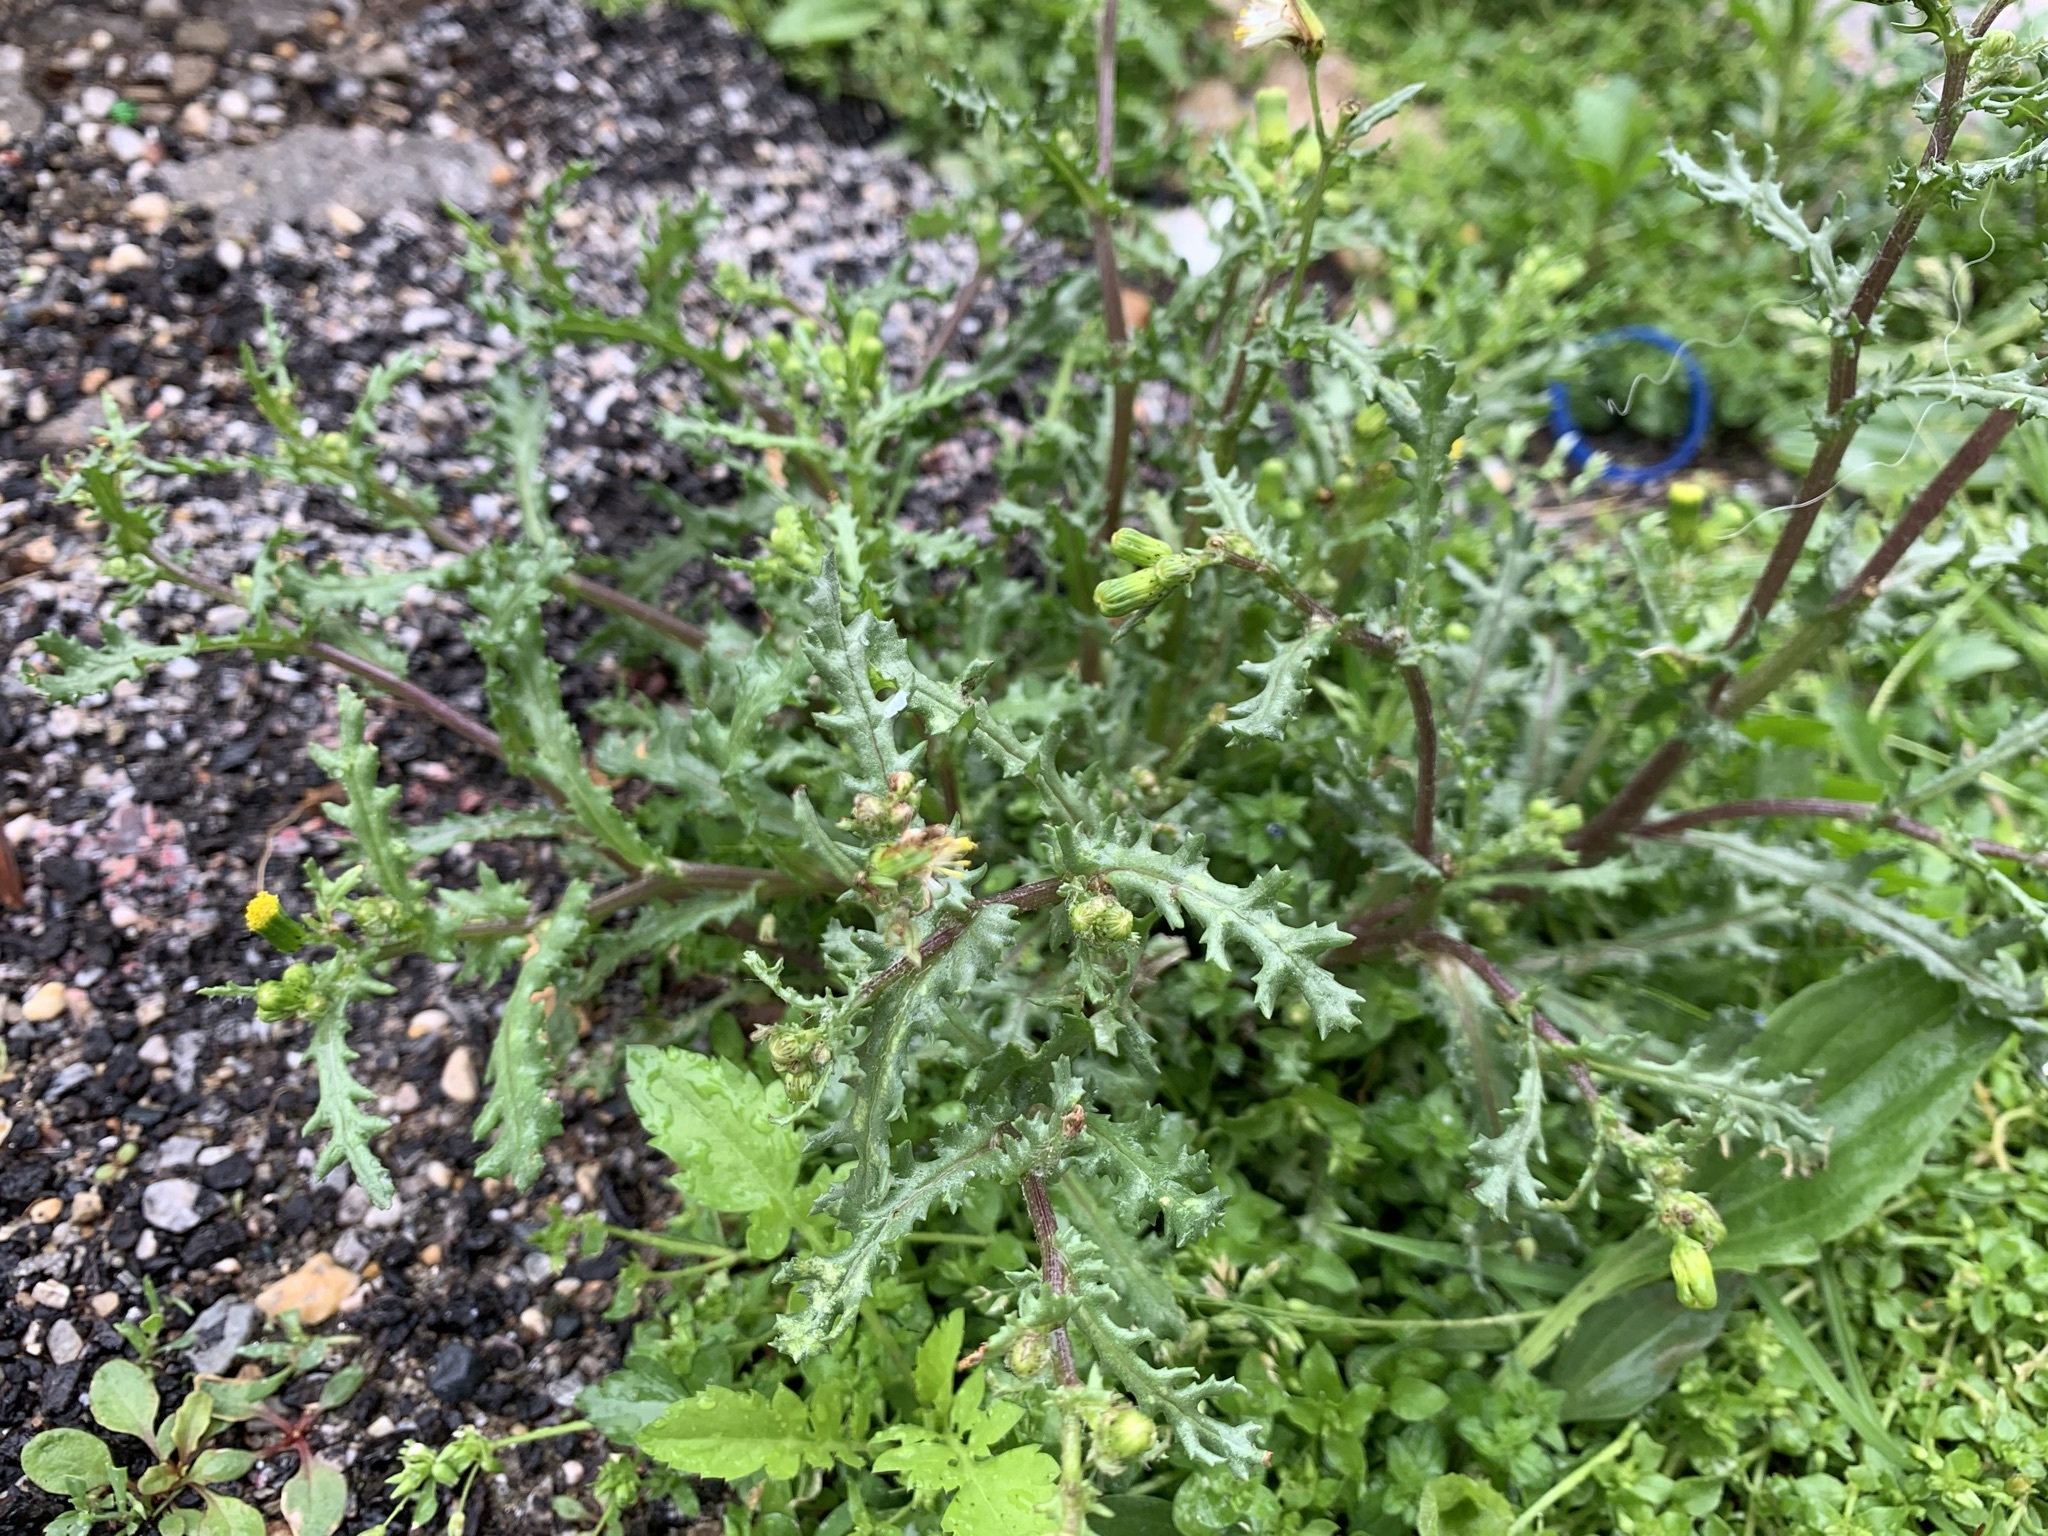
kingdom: Plantae
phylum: Tracheophyta
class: Magnoliopsida
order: Asterales
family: Asteraceae
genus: Senecio
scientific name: Senecio vulgaris
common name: Old-man-in-the-spring
